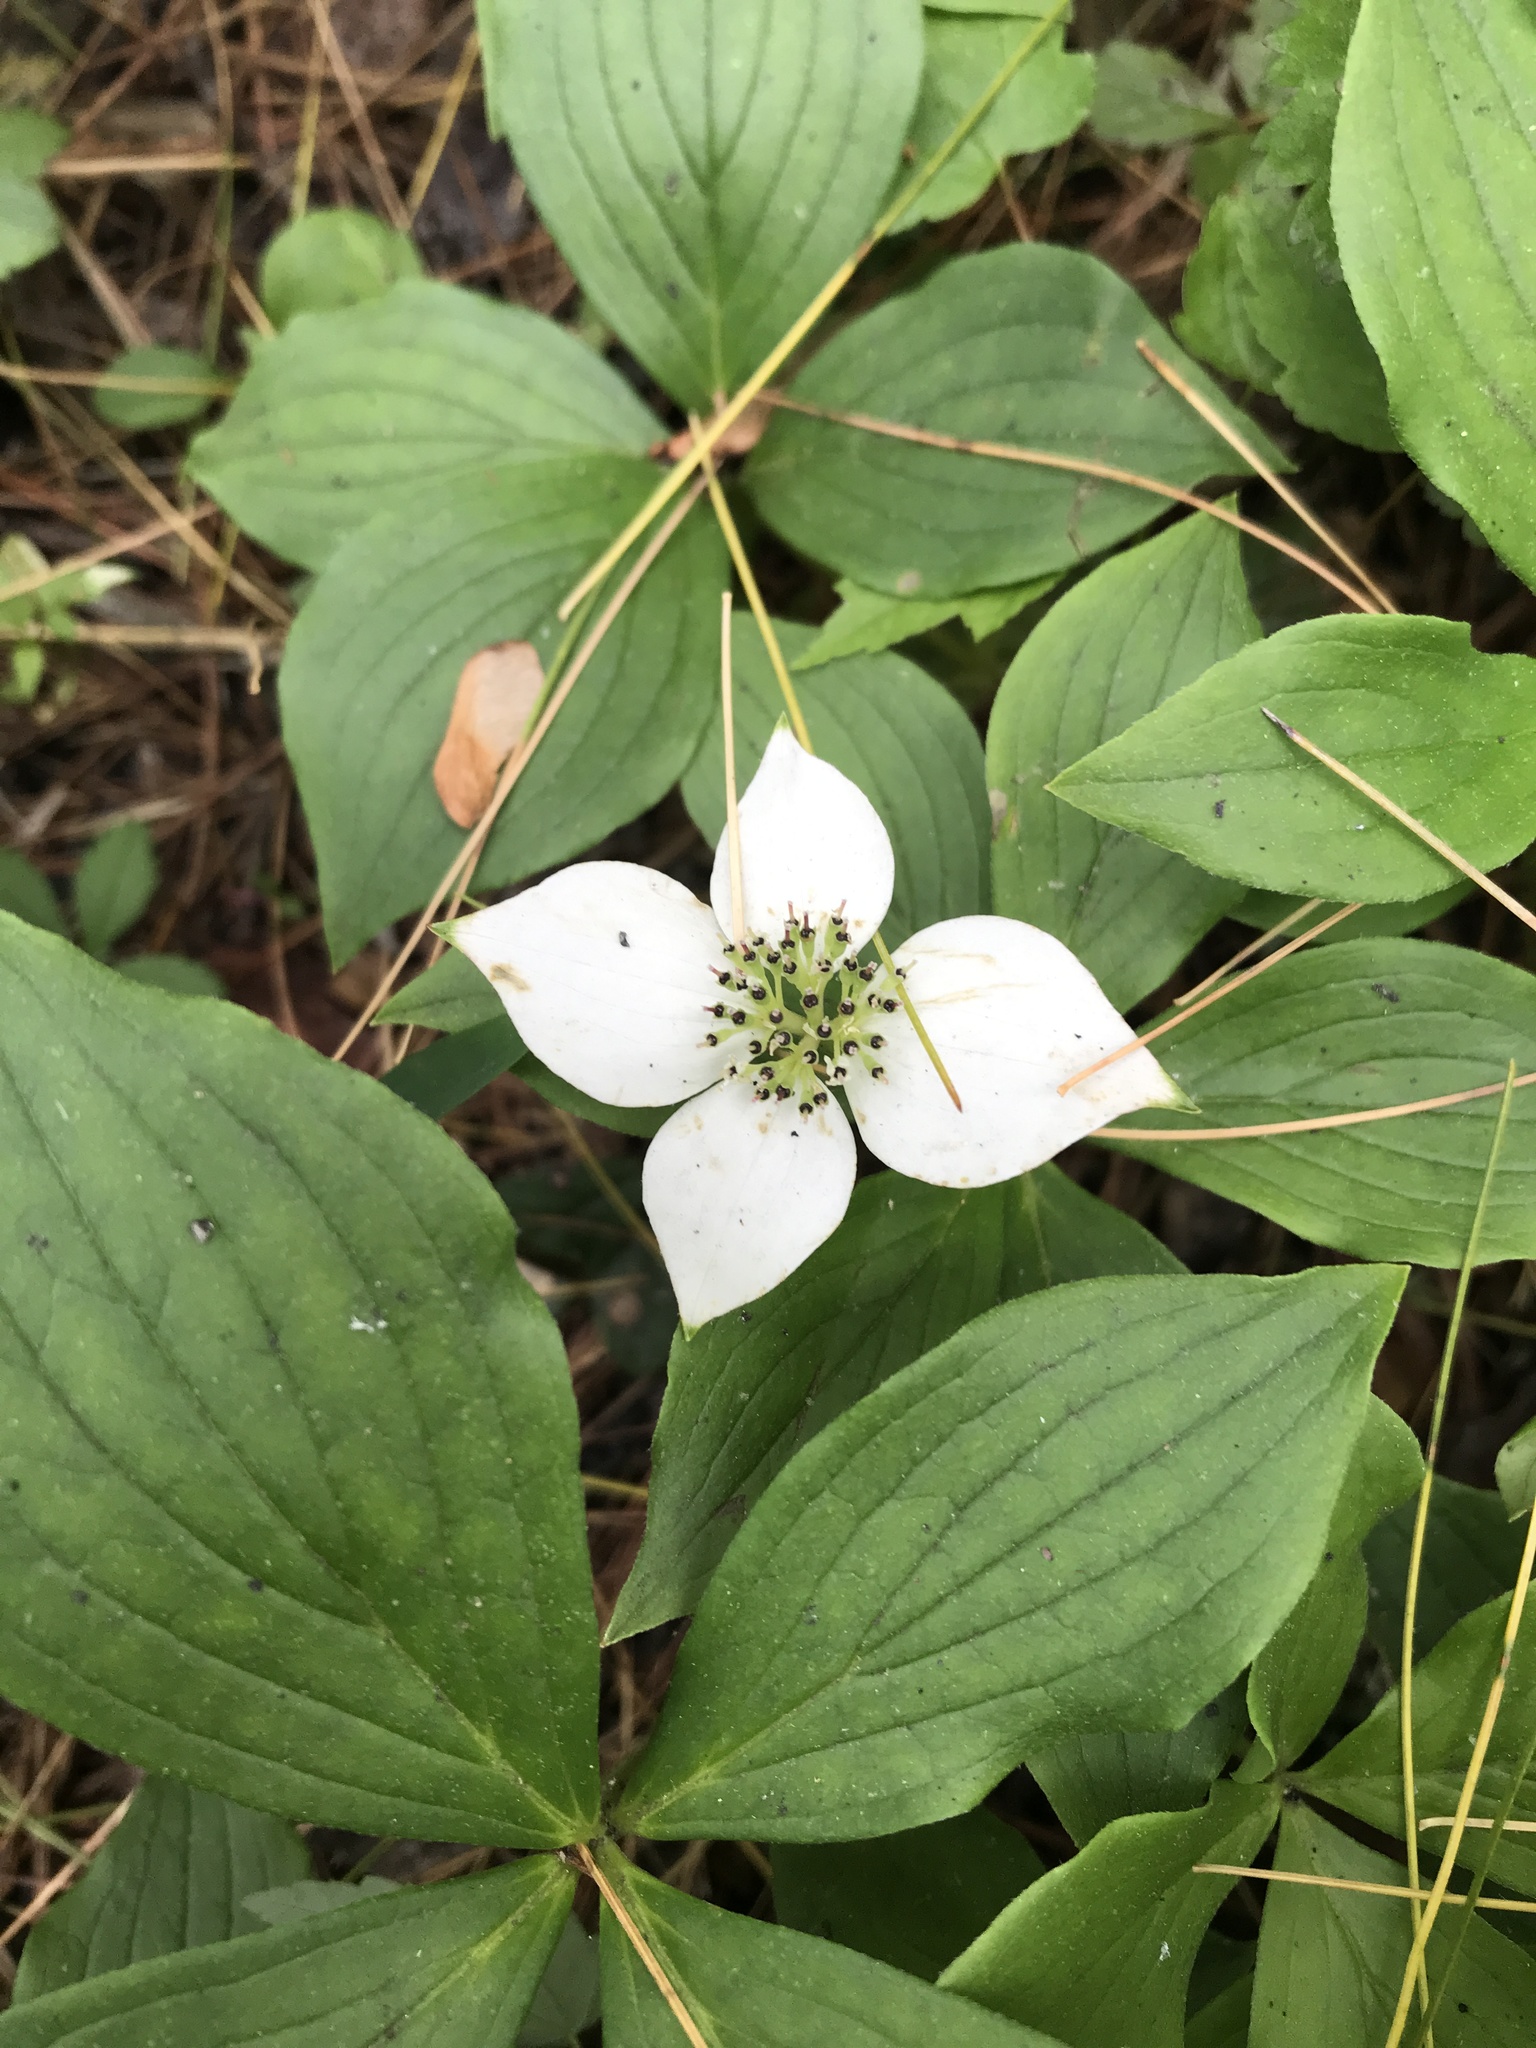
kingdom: Plantae
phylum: Tracheophyta
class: Magnoliopsida
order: Cornales
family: Cornaceae
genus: Cornus
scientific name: Cornus canadensis
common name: Creeping dogwood
